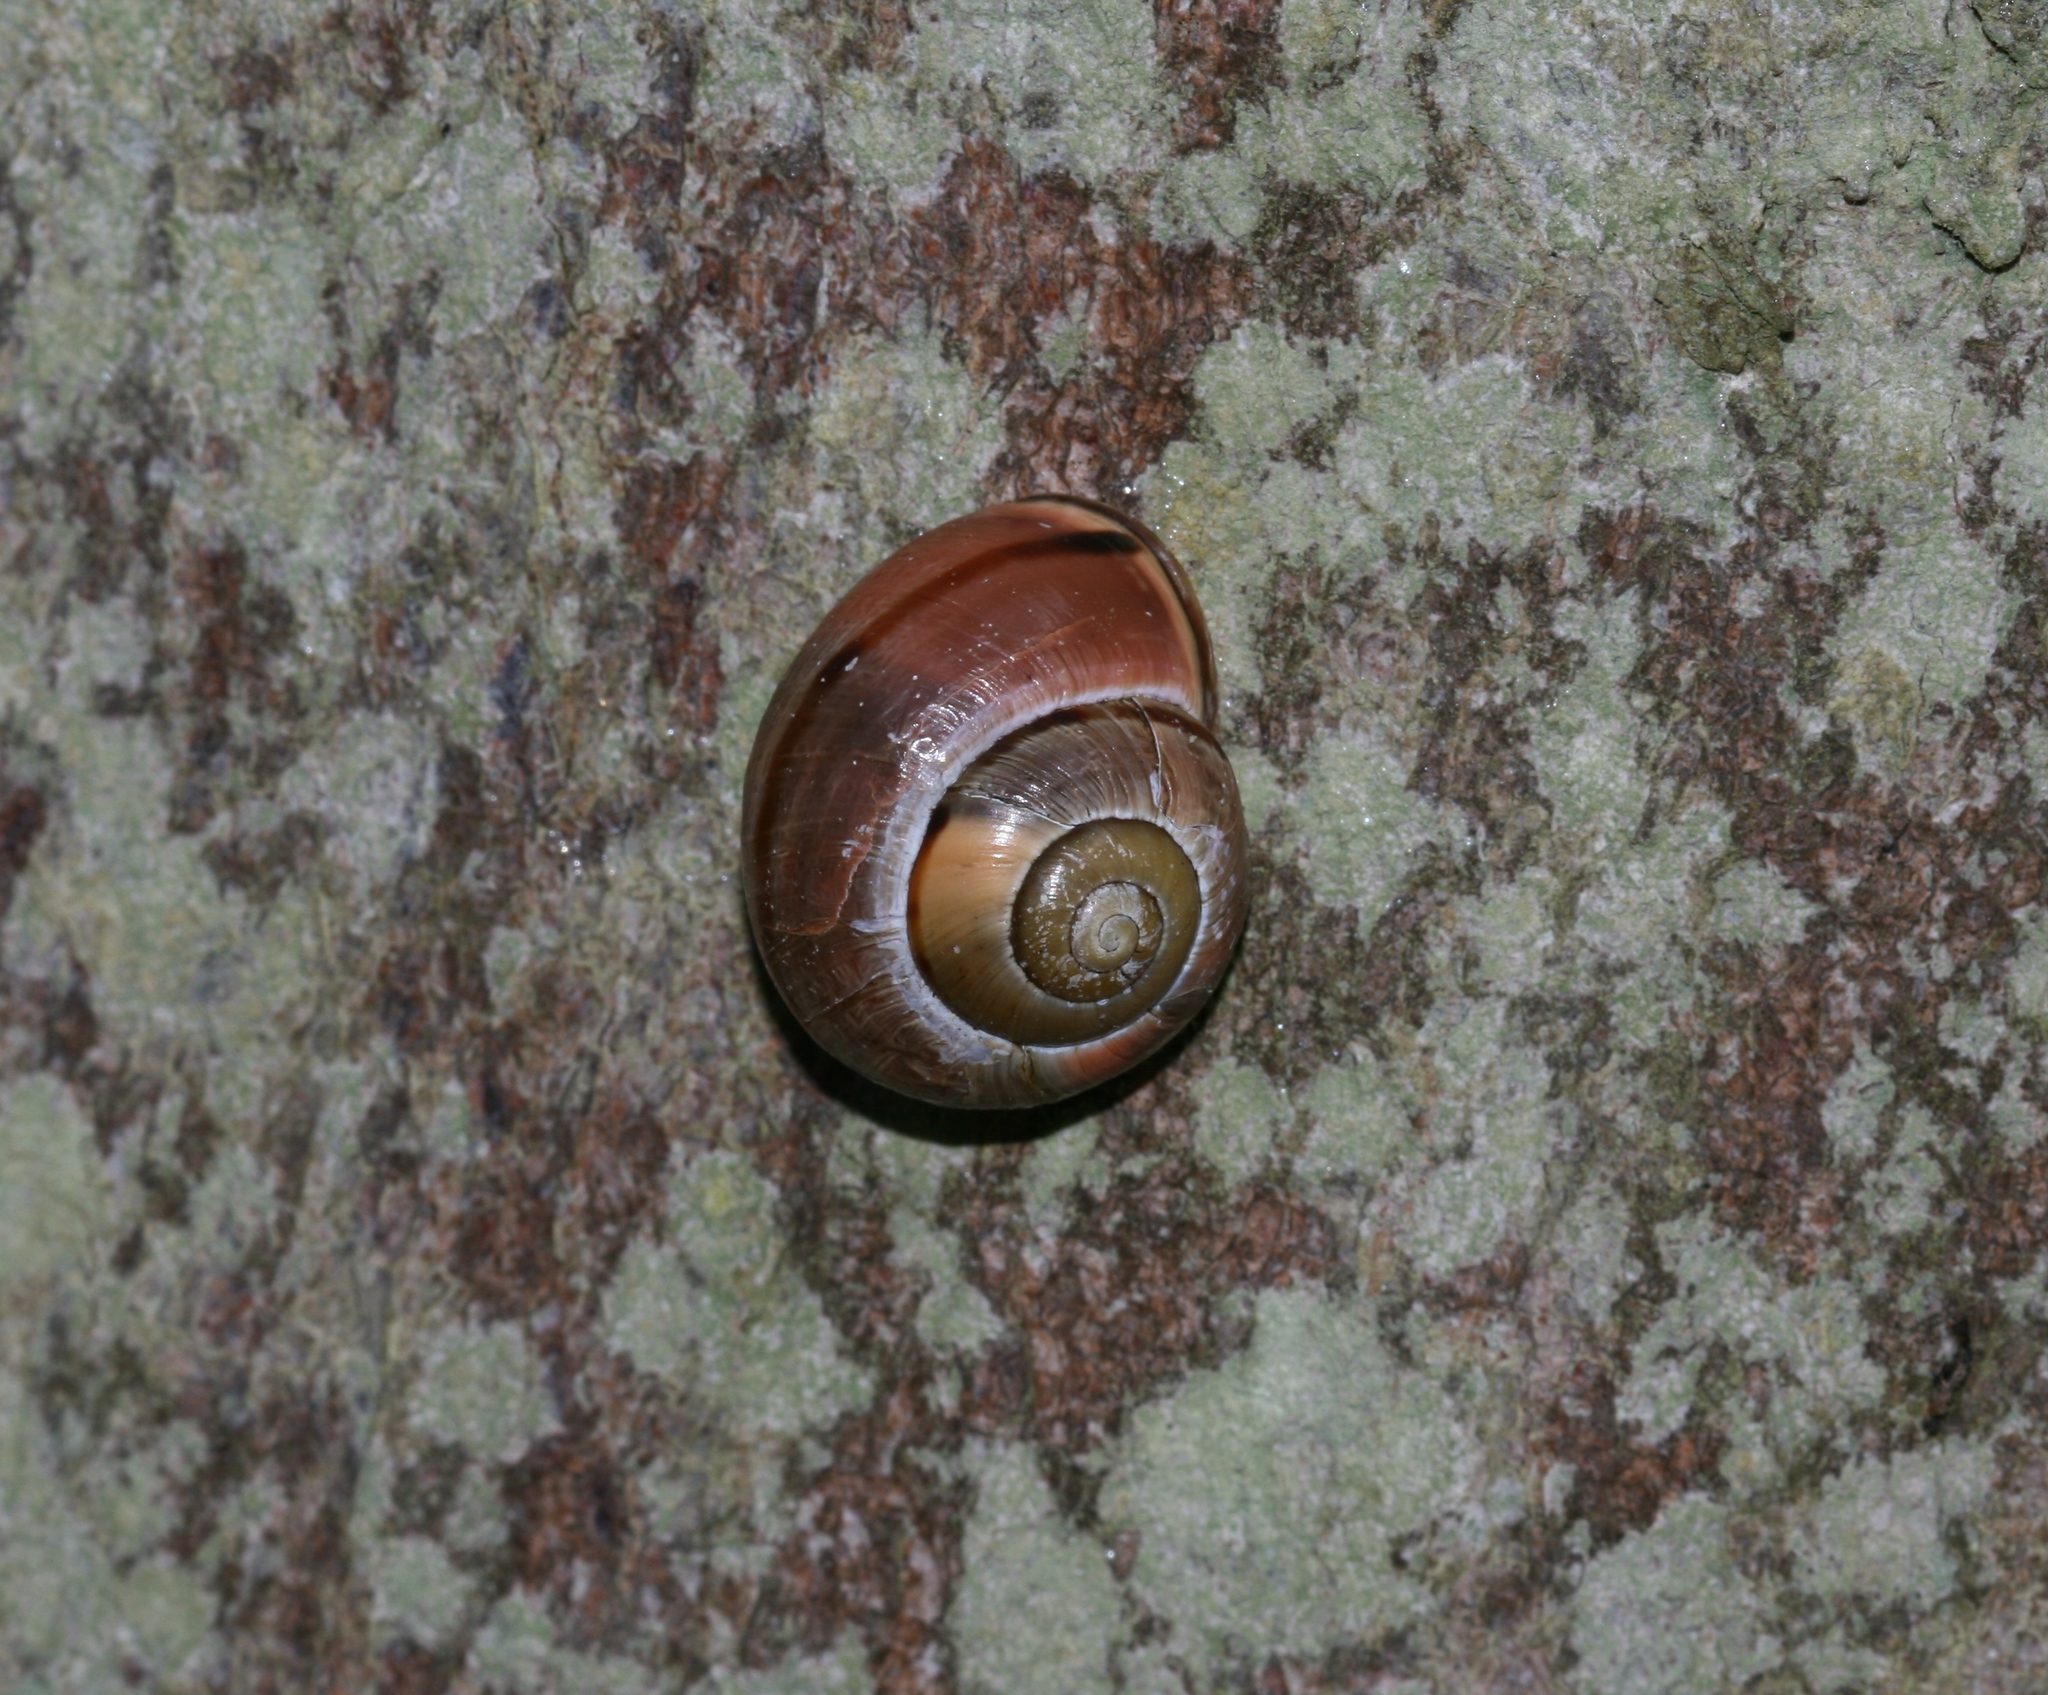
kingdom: Animalia
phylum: Mollusca
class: Gastropoda
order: Stylommatophora
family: Helicidae
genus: Cepaea
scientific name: Cepaea nemoralis
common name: Grovesnail
